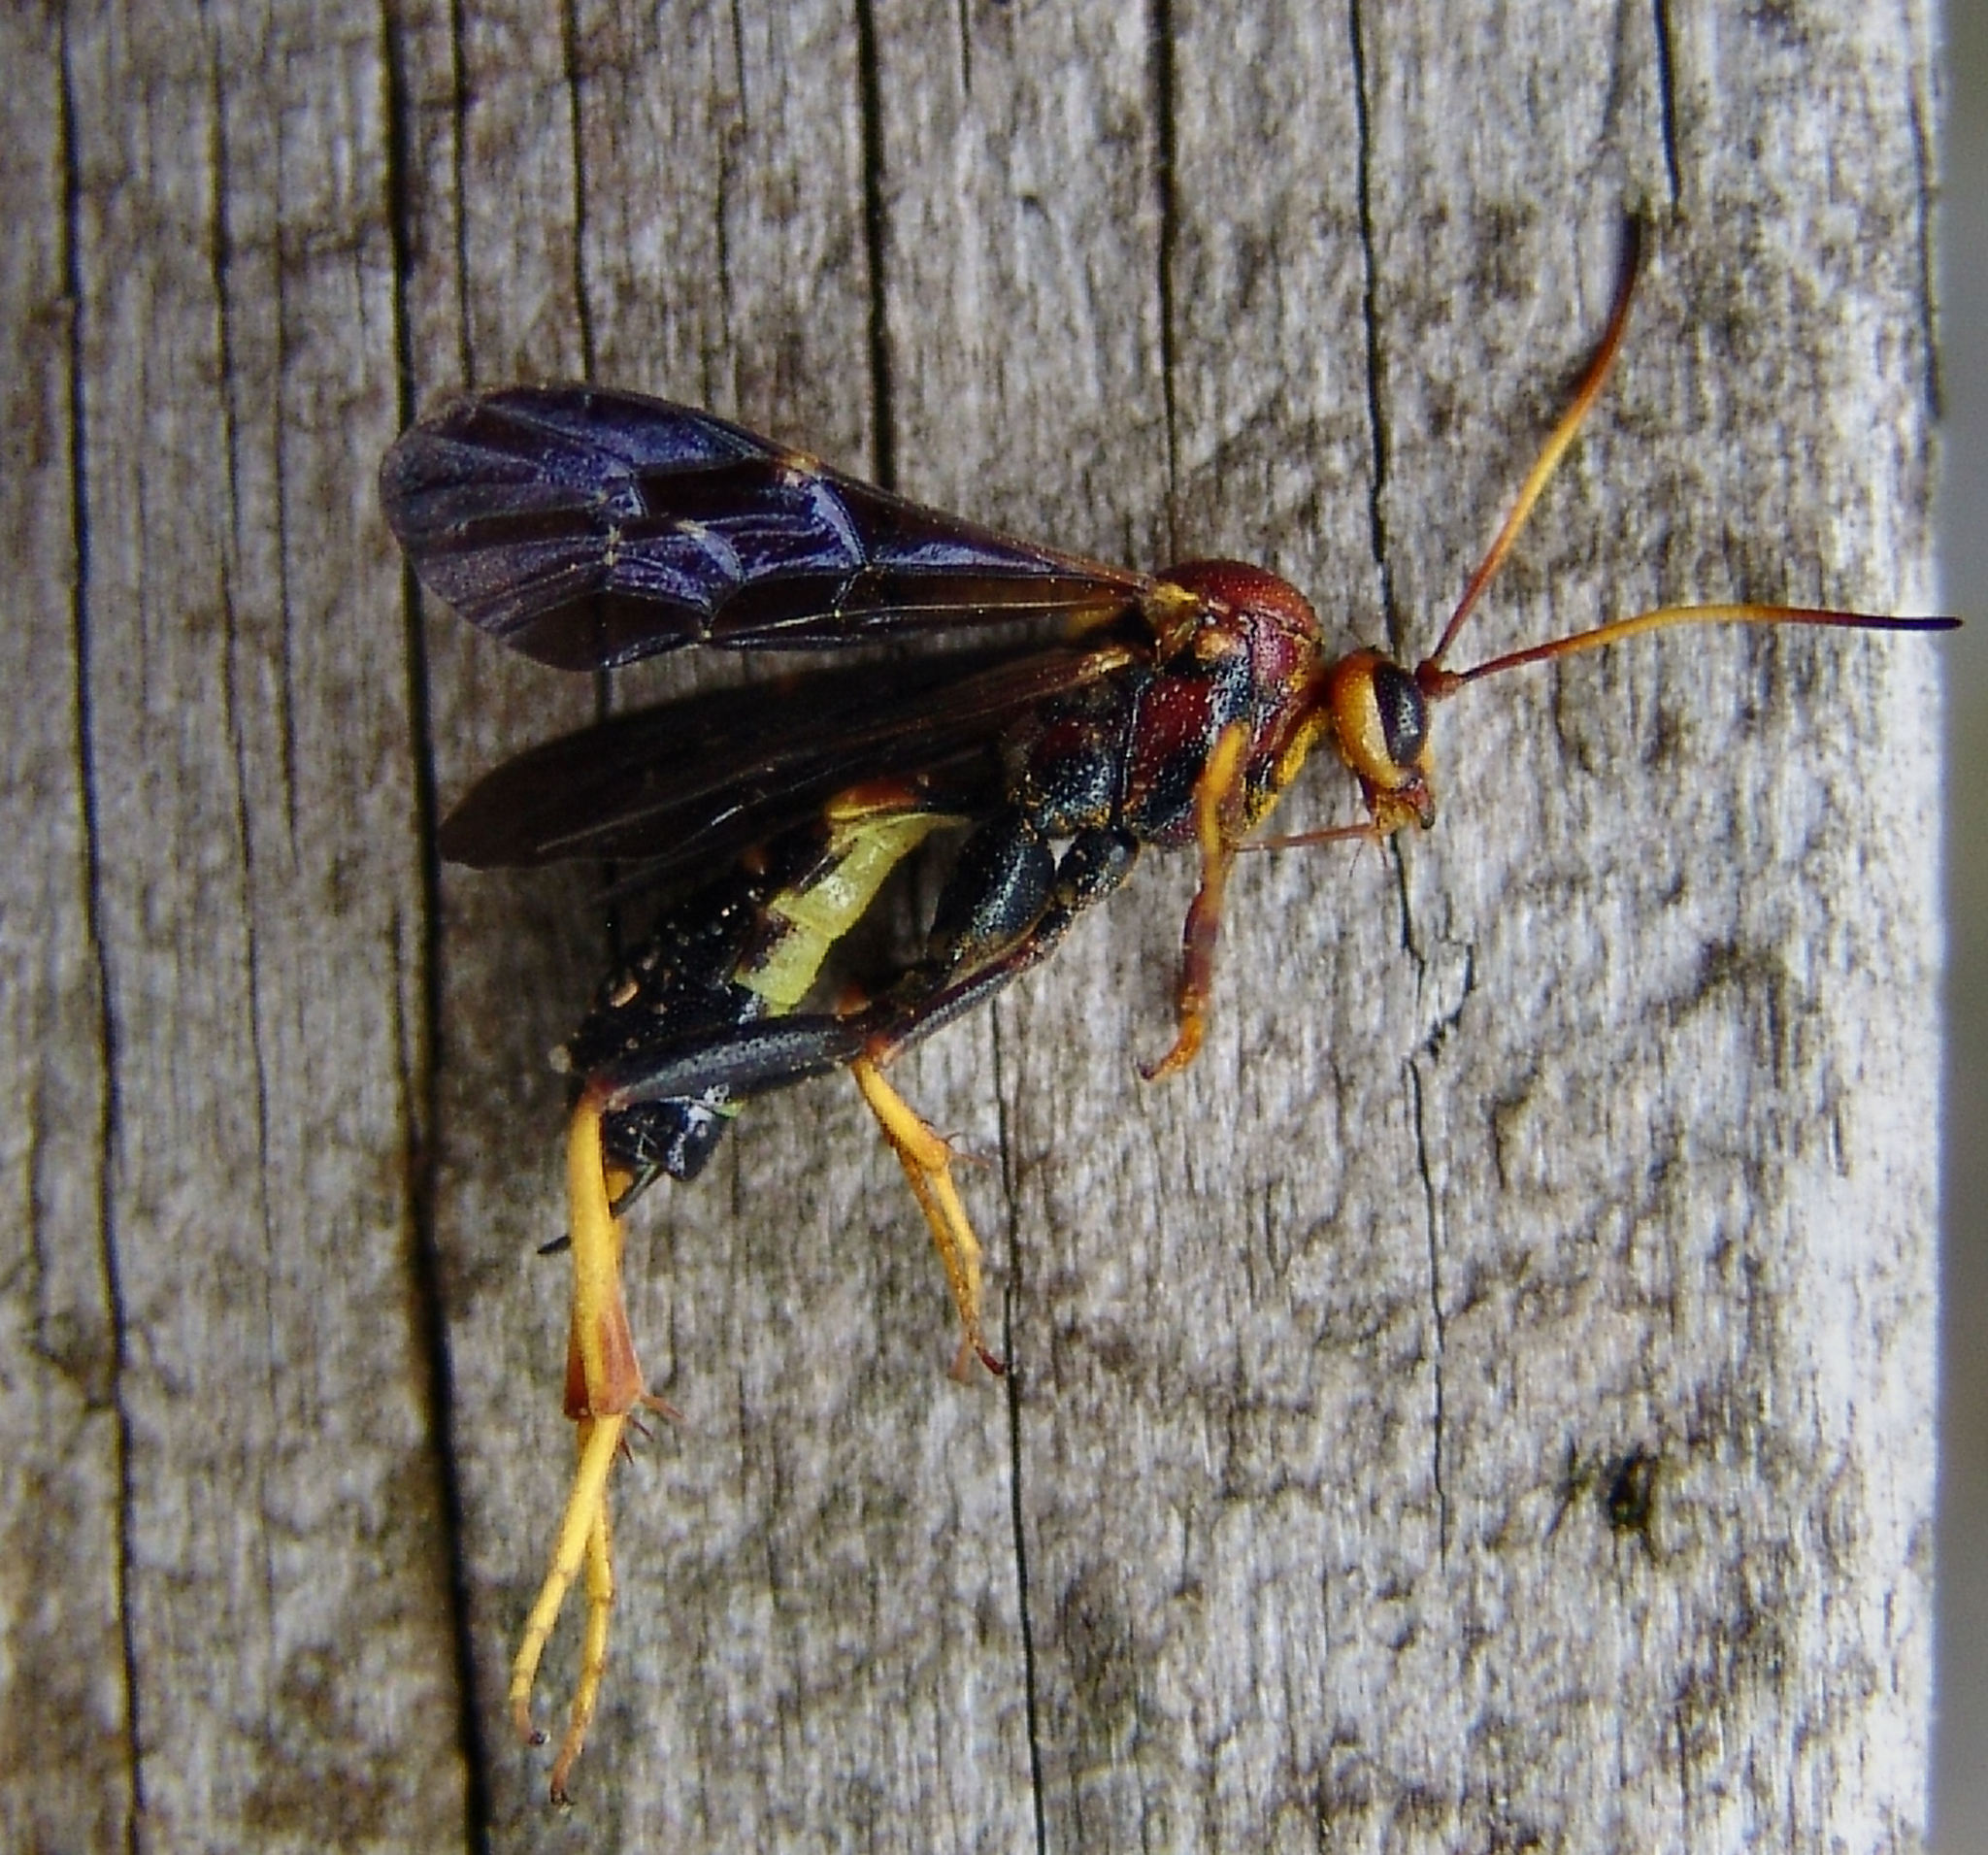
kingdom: Animalia
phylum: Arthropoda
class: Insecta
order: Hymenoptera
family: Ichneumonidae
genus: Agathilla
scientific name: Agathilla bradleyi
